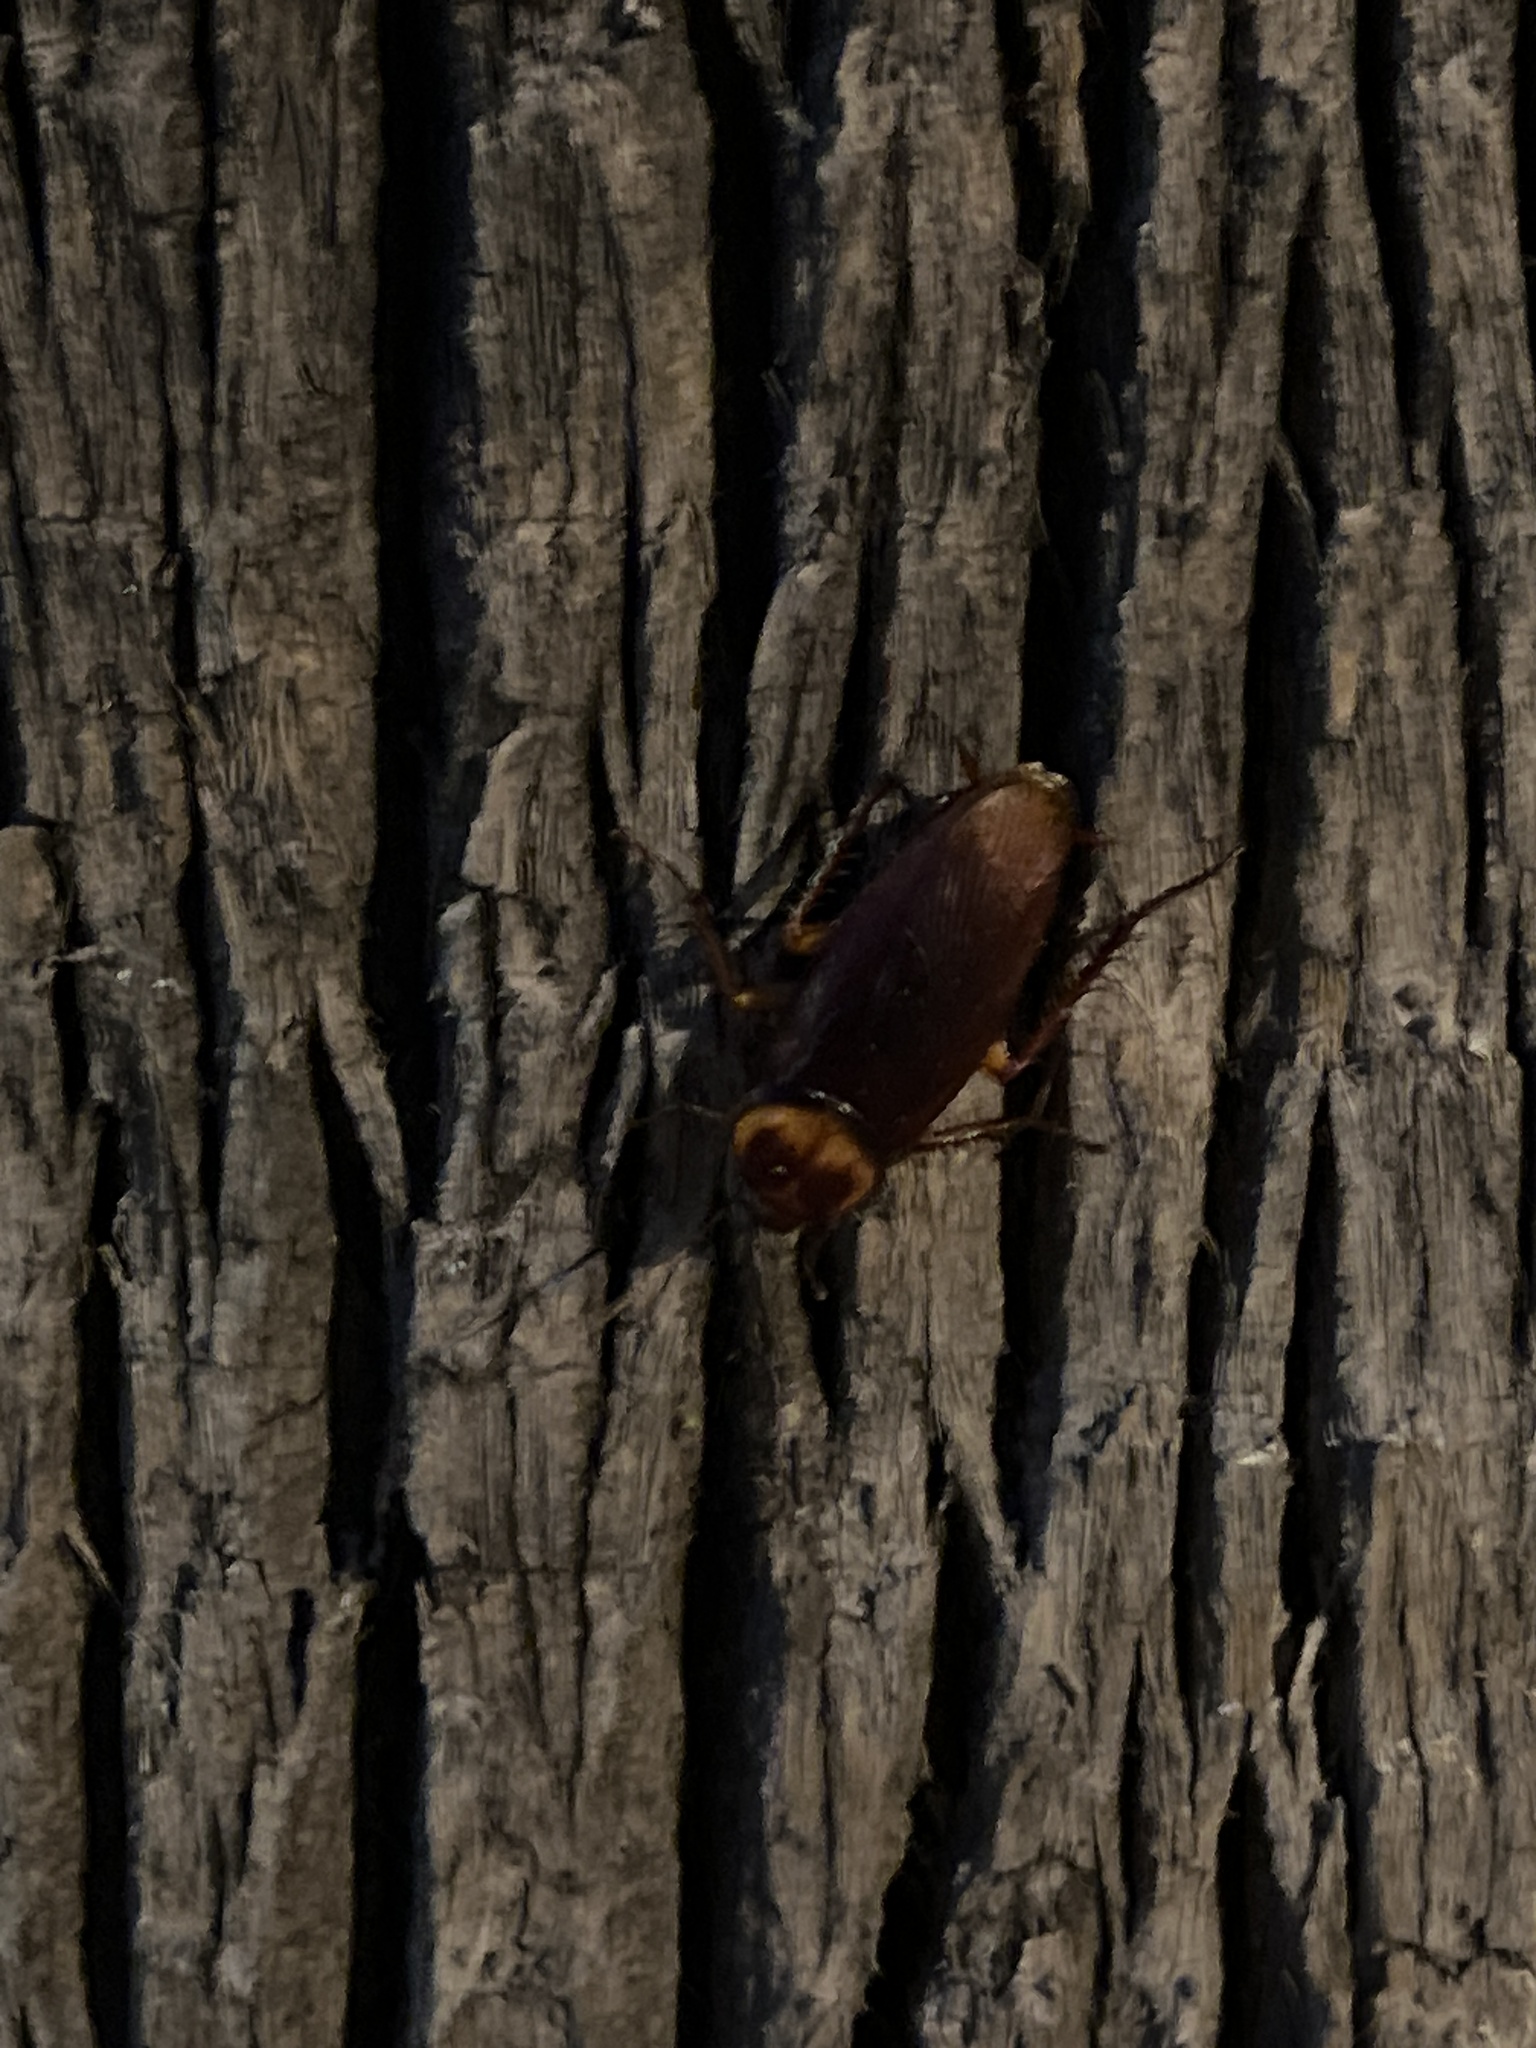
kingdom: Animalia
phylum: Arthropoda
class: Insecta
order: Blattodea
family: Blattidae
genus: Periplaneta
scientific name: Periplaneta americana
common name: American cockroach
